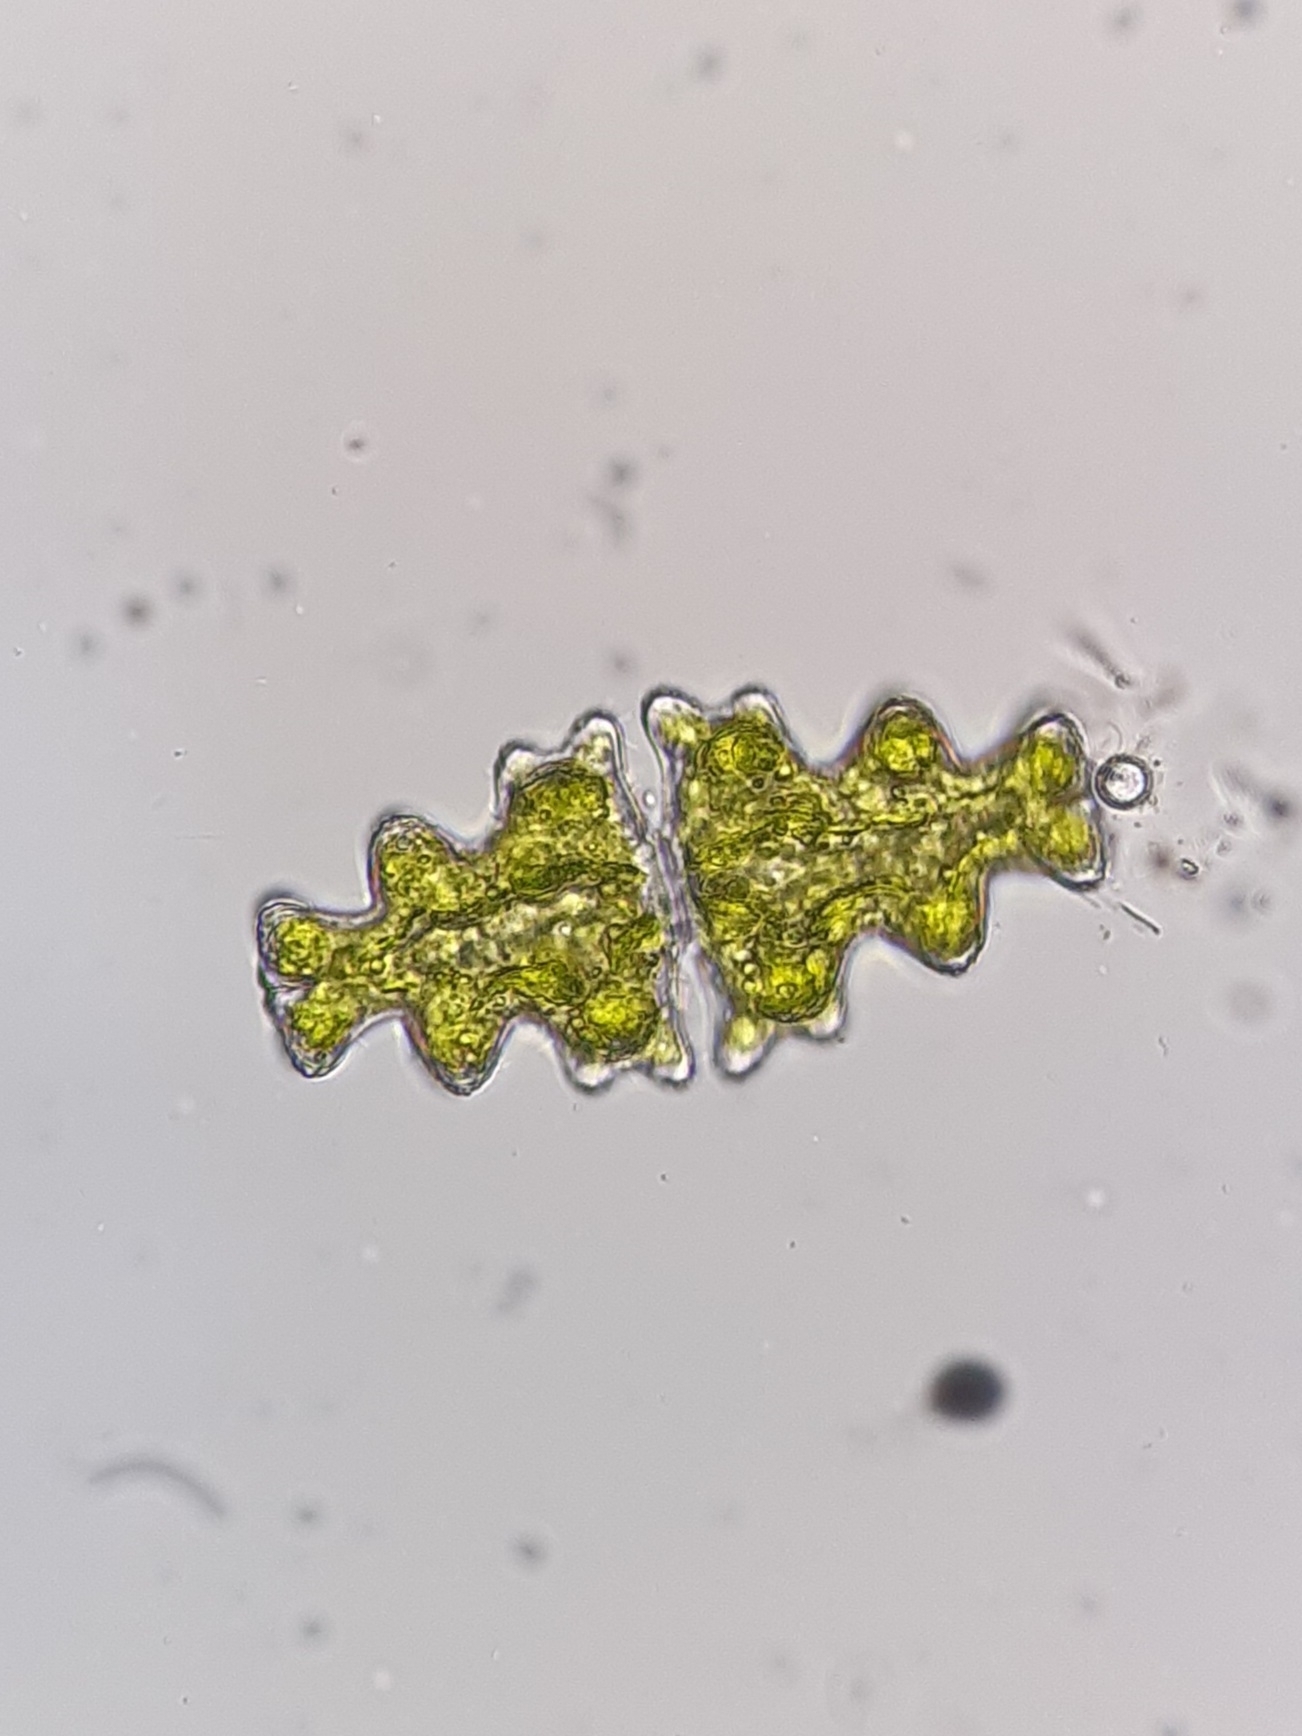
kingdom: Plantae
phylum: Charophyta
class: Conjugatophyceae
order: Desmidiales
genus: Euastrum
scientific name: Euastrum pinnatum
